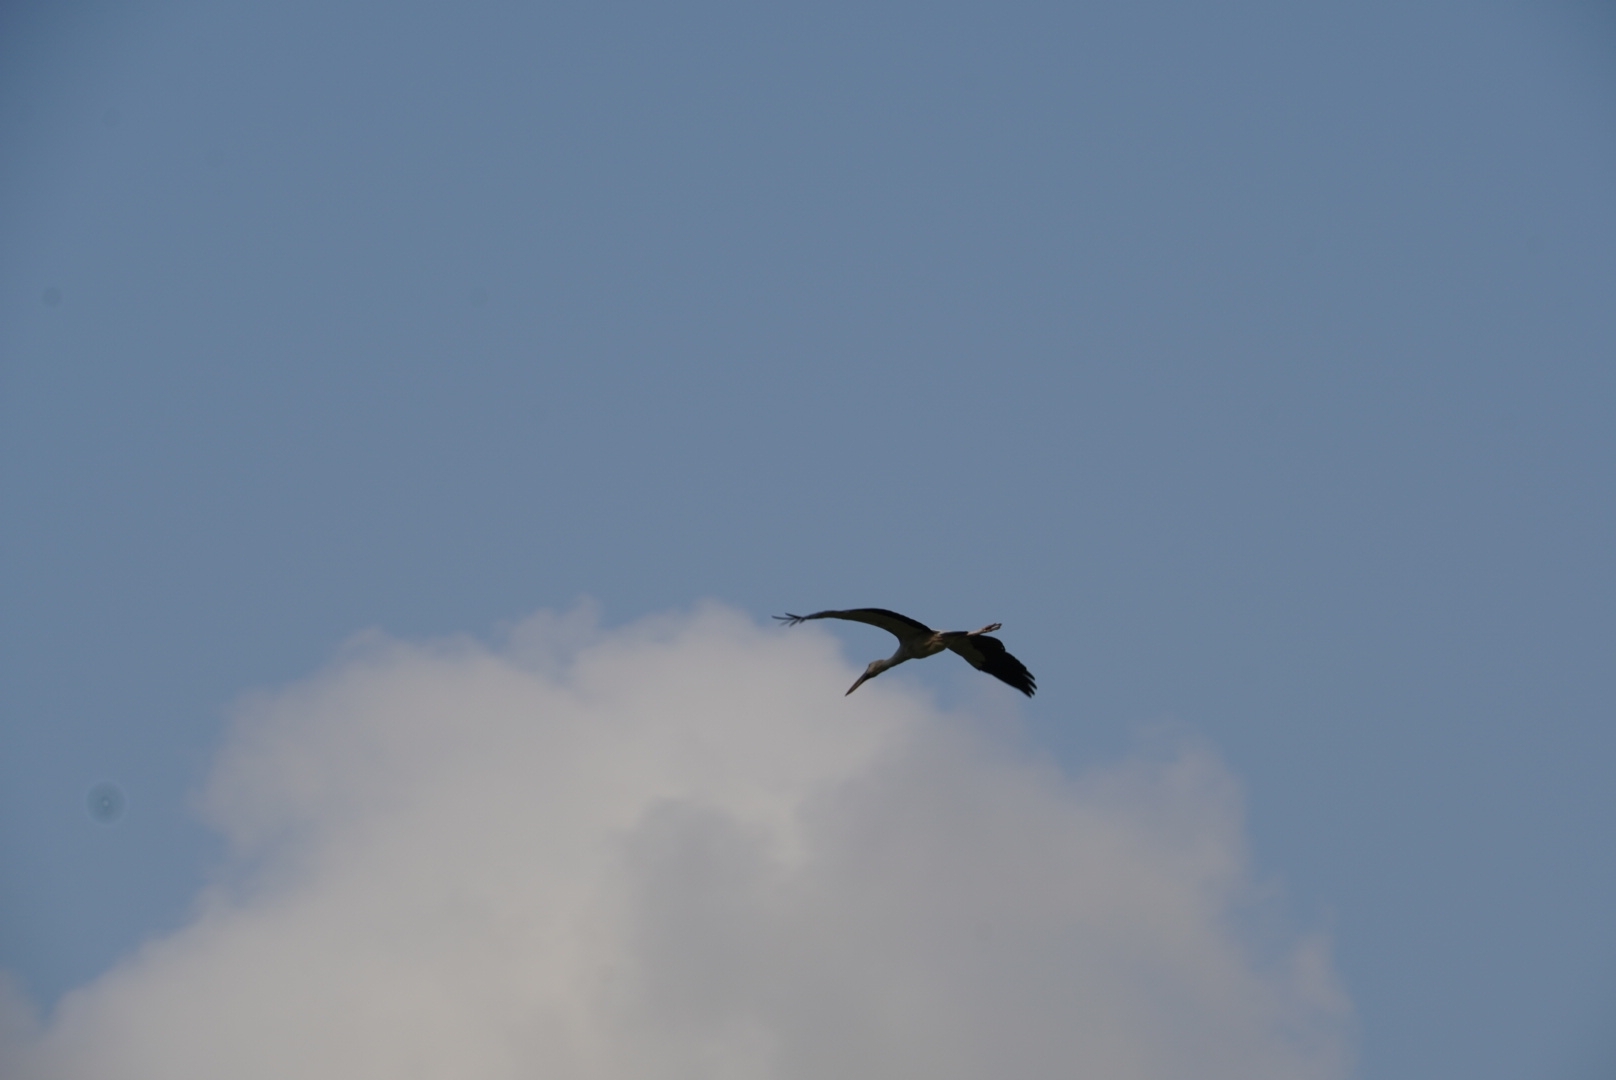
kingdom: Animalia
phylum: Chordata
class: Aves
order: Ciconiiformes
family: Ciconiidae
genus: Anastomus
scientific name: Anastomus oscitans
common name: Asian openbill
